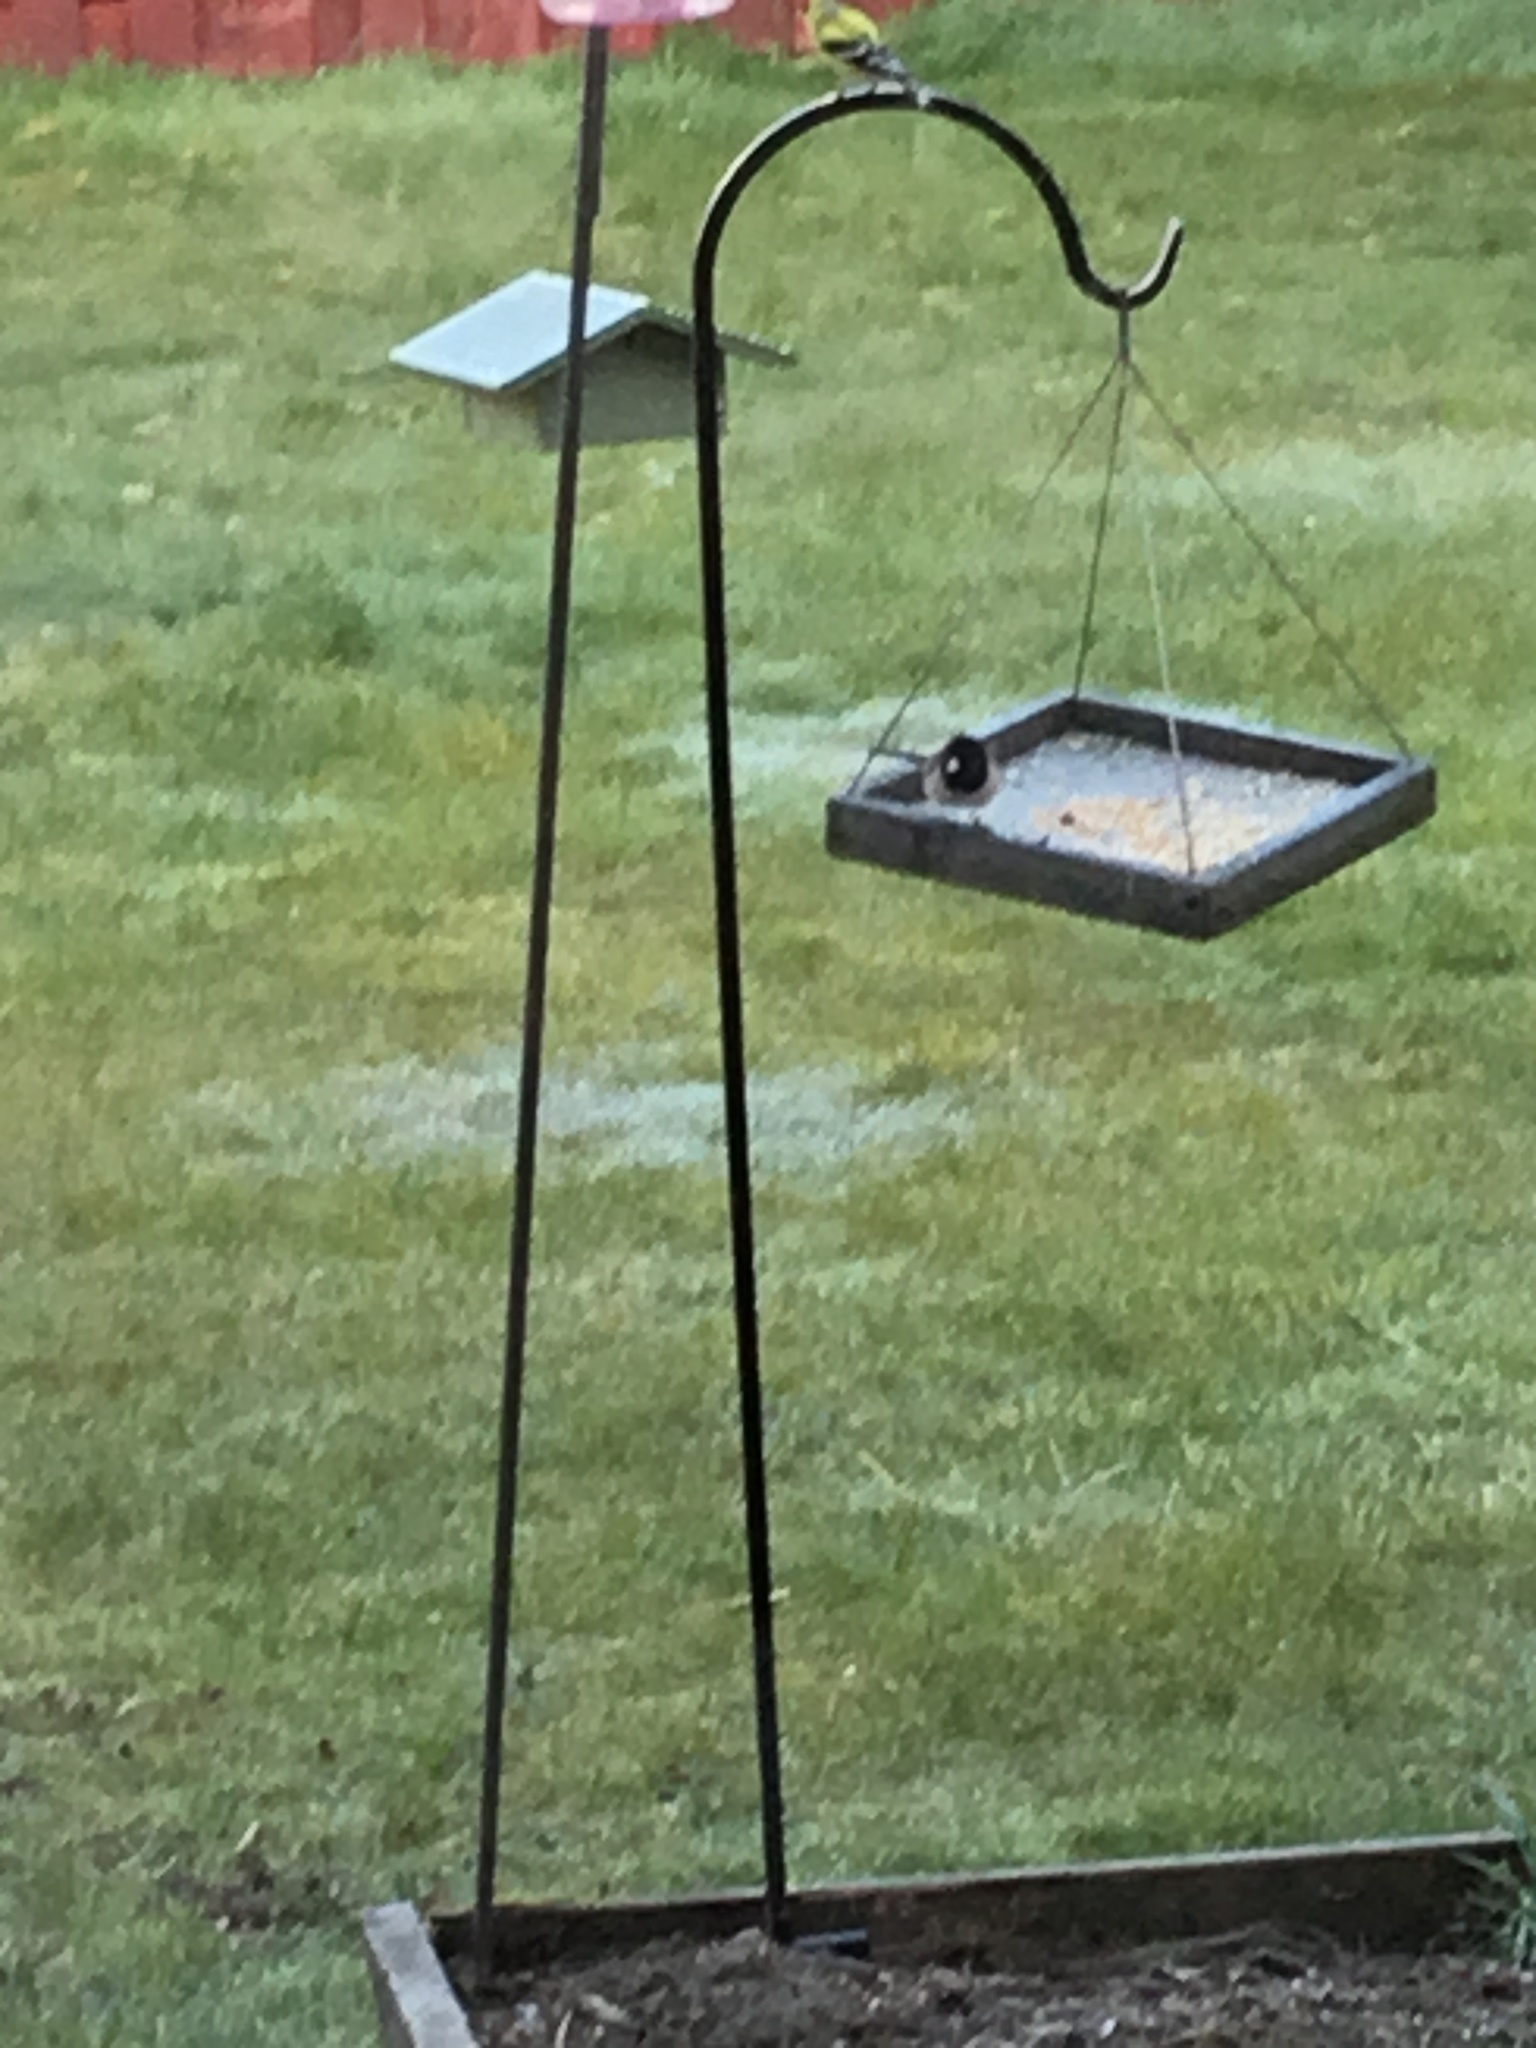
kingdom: Animalia
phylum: Chordata
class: Aves
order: Passeriformes
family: Passerellidae
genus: Junco
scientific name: Junco hyemalis
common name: Dark-eyed junco
